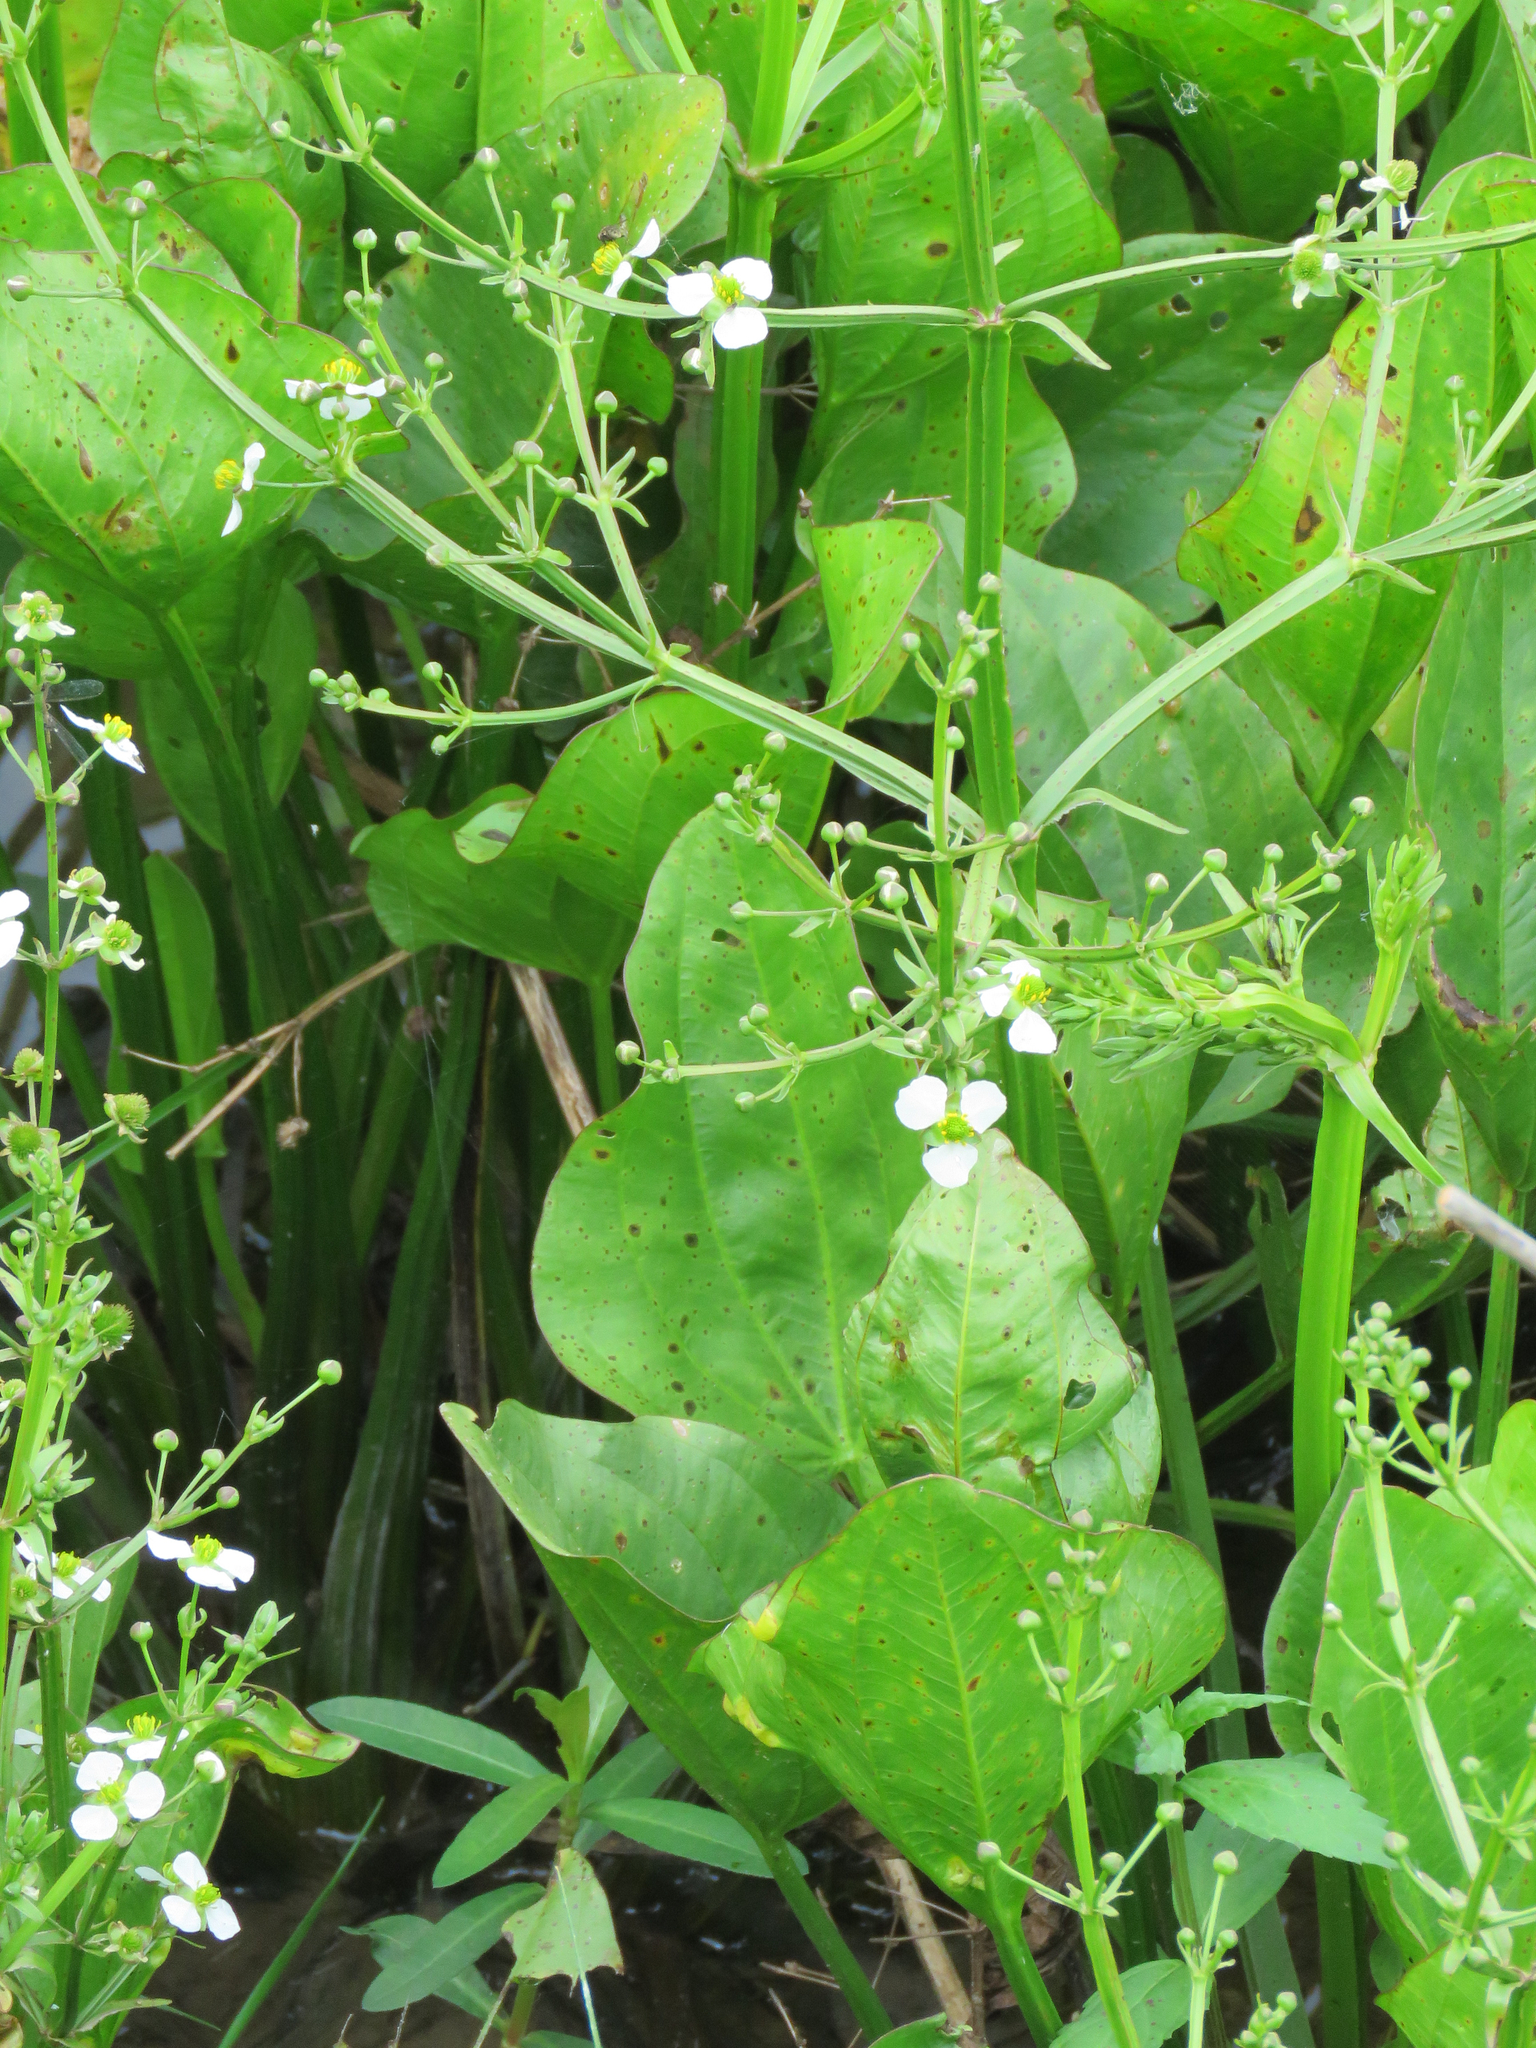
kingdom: Plantae
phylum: Tracheophyta
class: Liliopsida
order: Alismatales
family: Alismataceae
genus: Echinodorus
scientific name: Echinodorus berteroi
